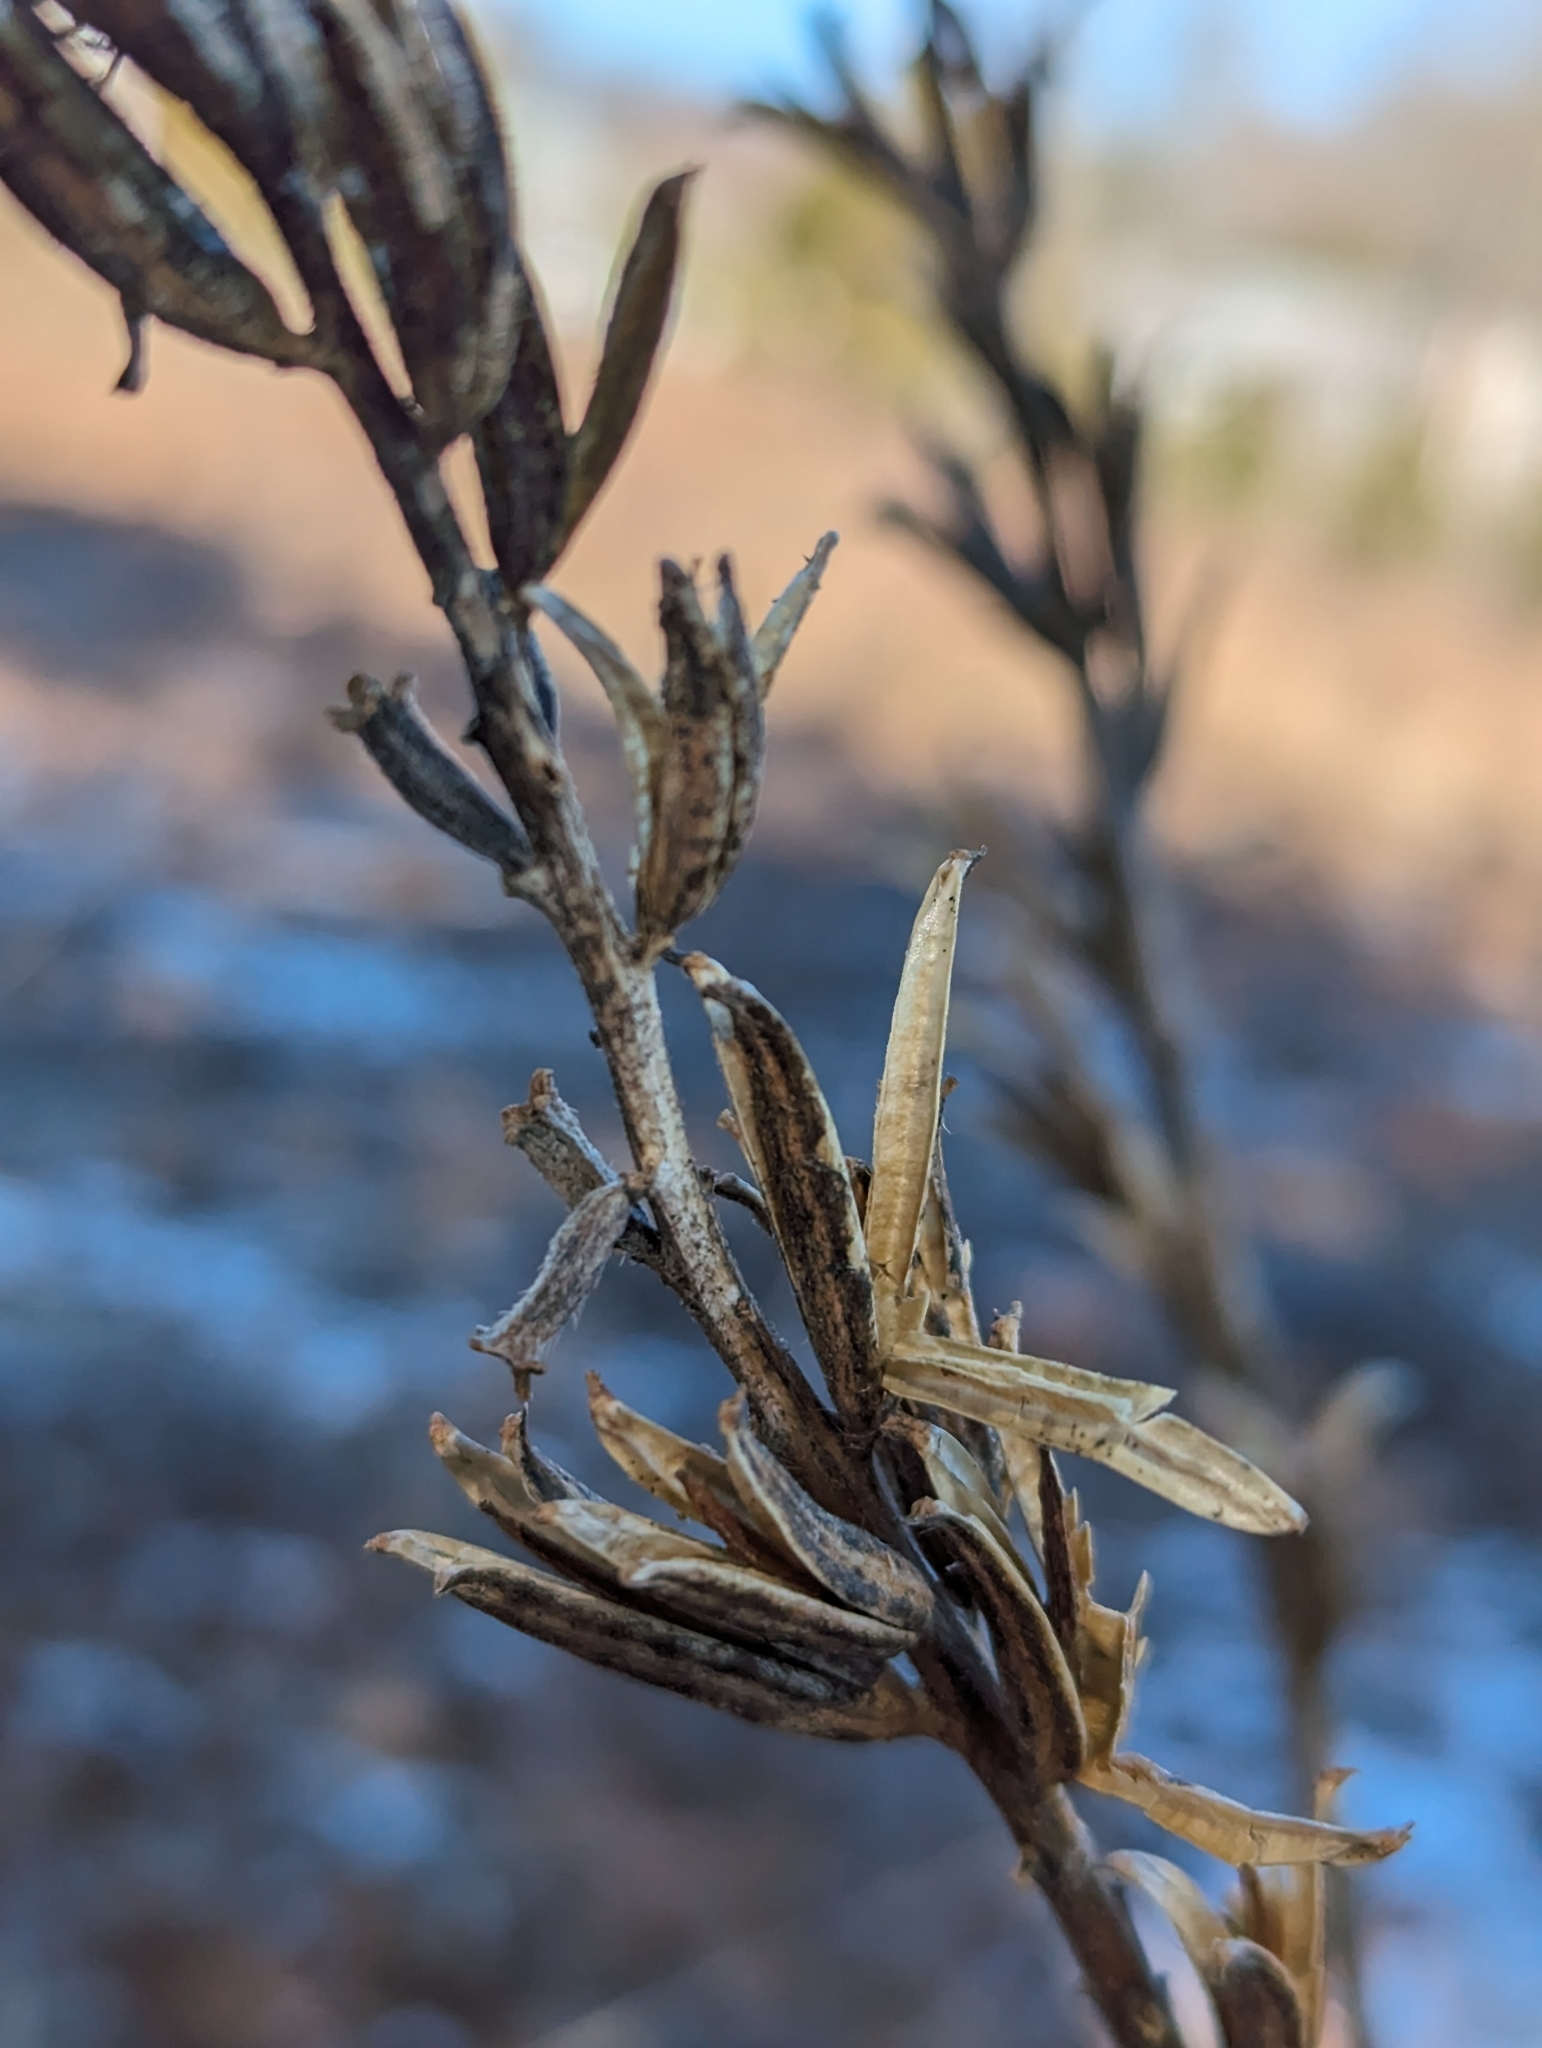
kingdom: Plantae
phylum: Tracheophyta
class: Magnoliopsida
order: Myrtales
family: Onagraceae
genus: Oenothera
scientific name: Oenothera biennis
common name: Common evening-primrose
